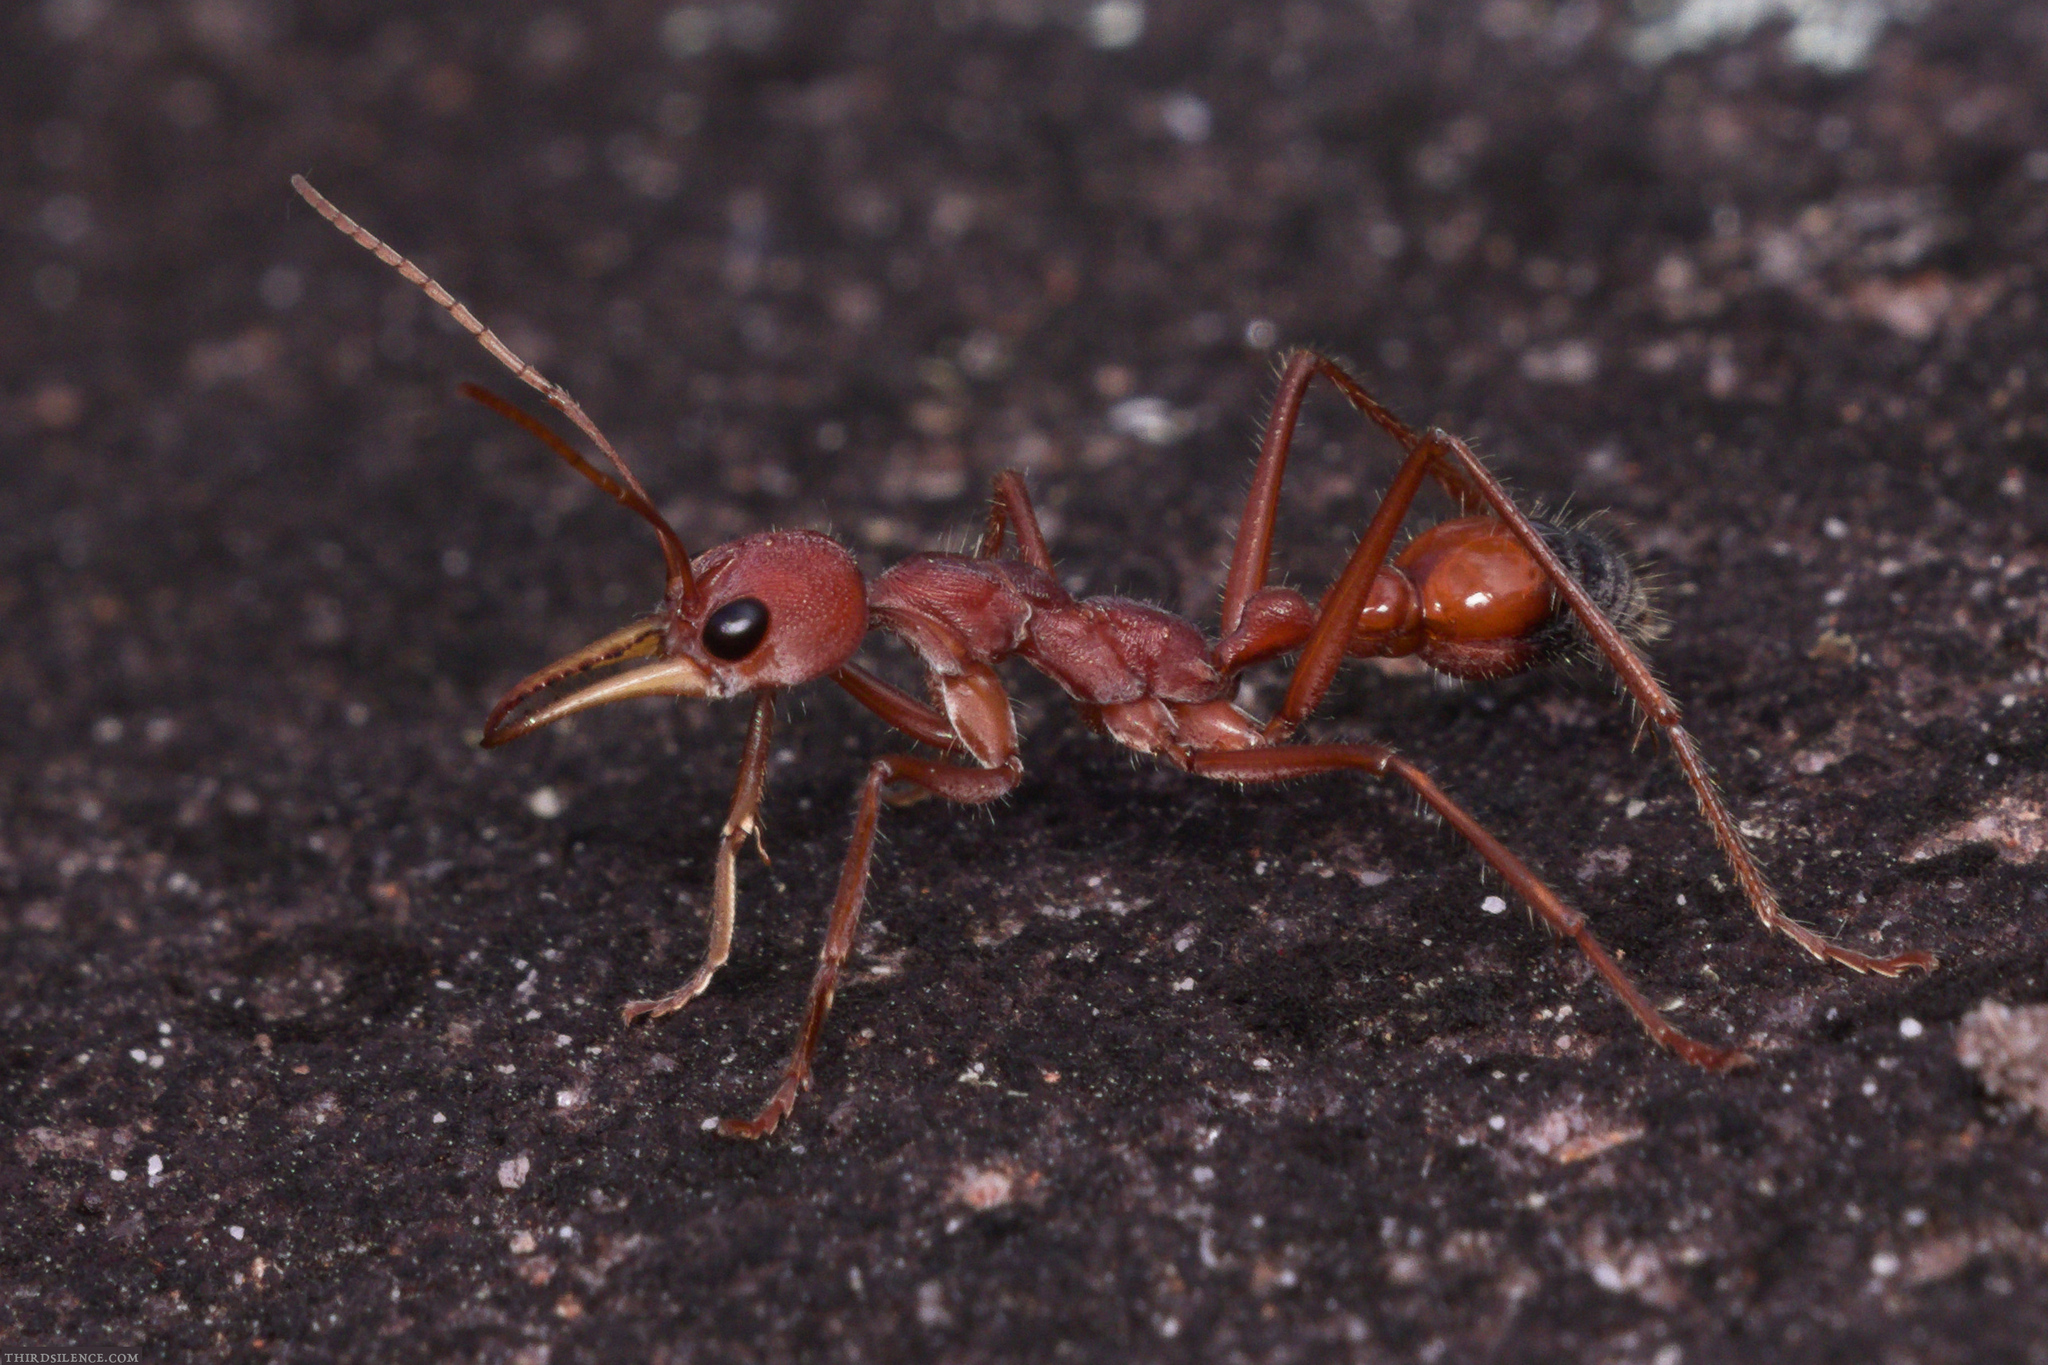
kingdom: Animalia
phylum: Arthropoda
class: Insecta
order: Hymenoptera
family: Formicidae
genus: Myrmecia
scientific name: Myrmecia gulosa
